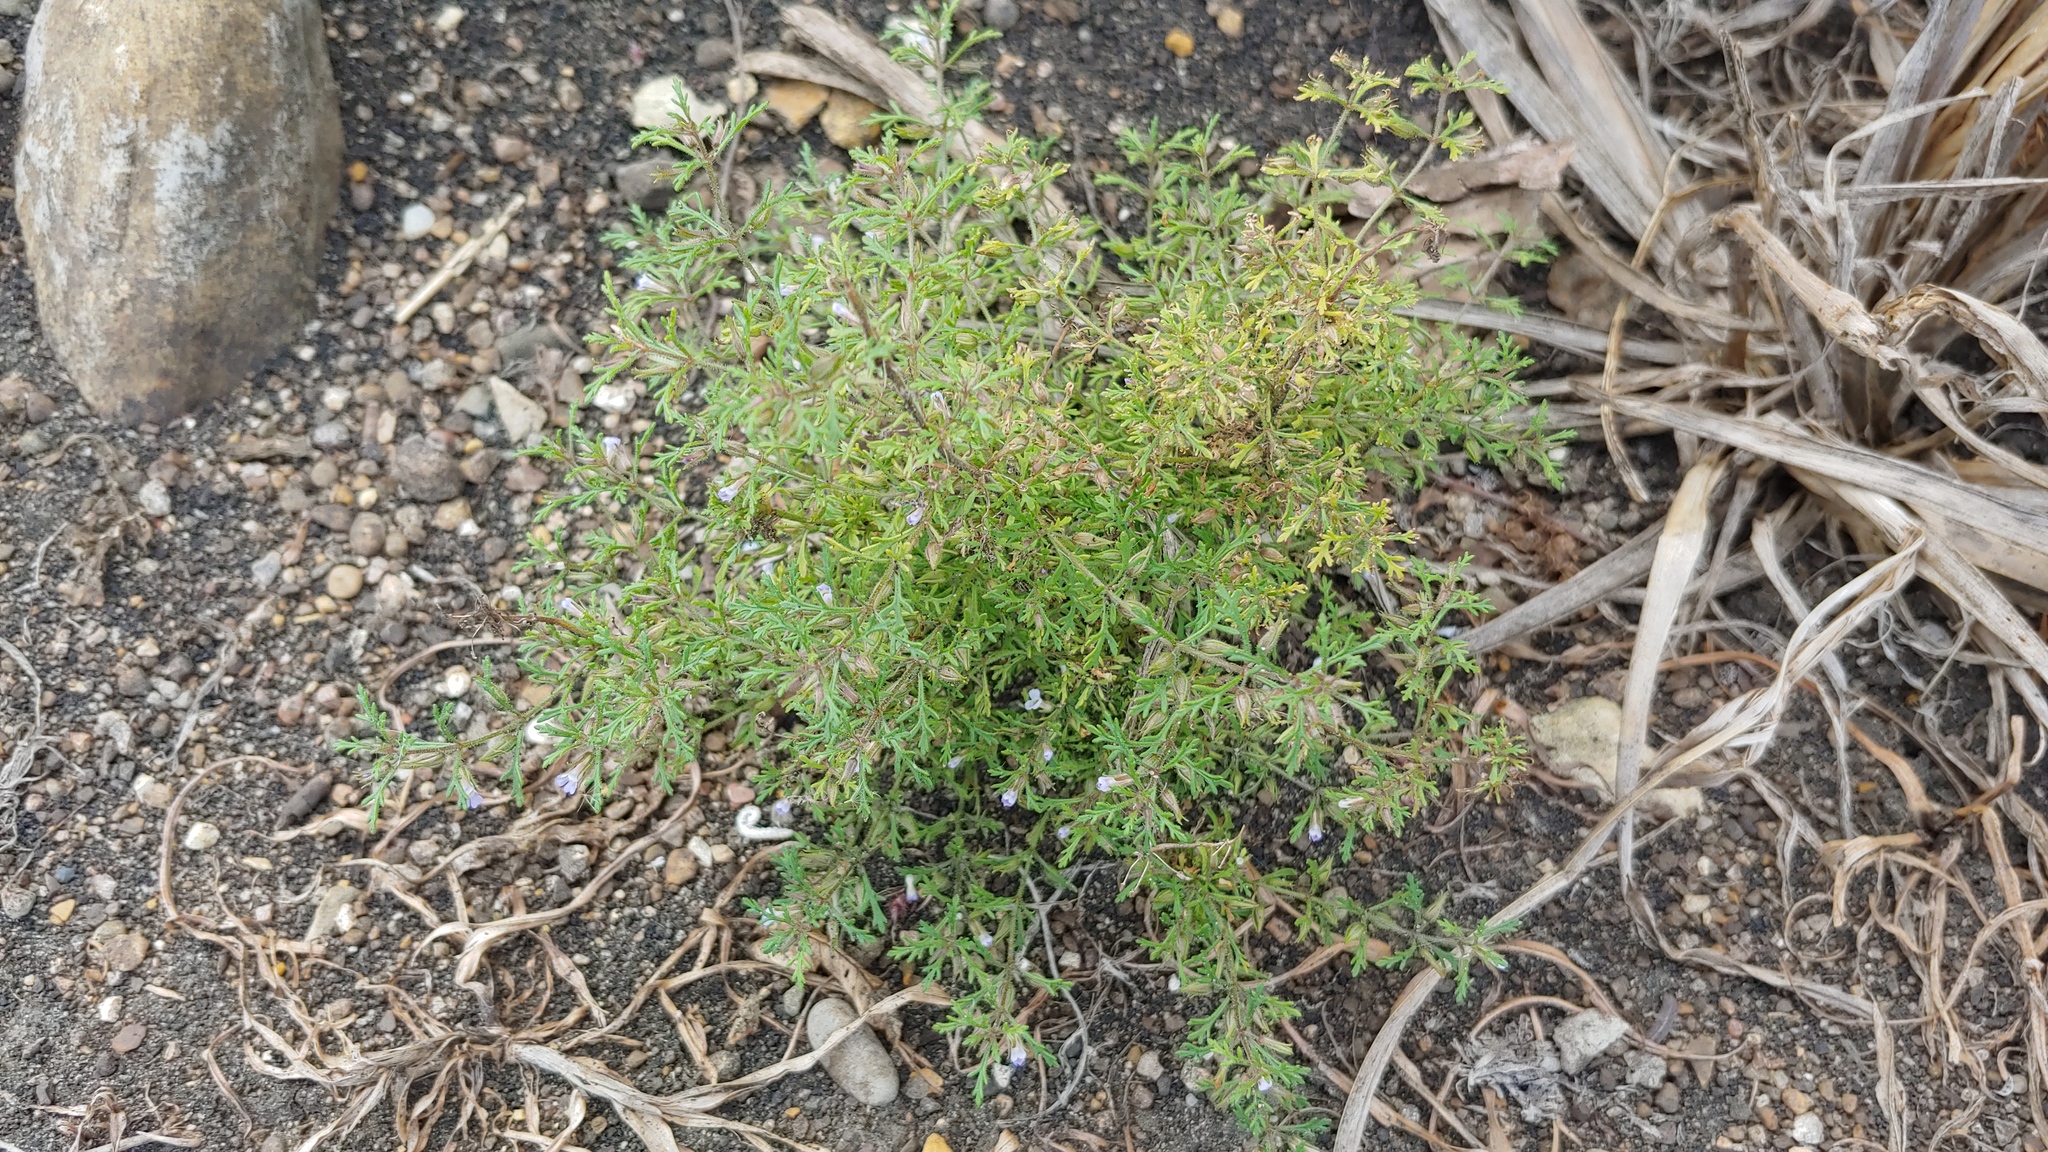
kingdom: Plantae
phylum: Tracheophyta
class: Magnoliopsida
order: Lamiales
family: Plantaginaceae
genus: Leucospora
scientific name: Leucospora multifida
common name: Narrow-leaf paleseed
